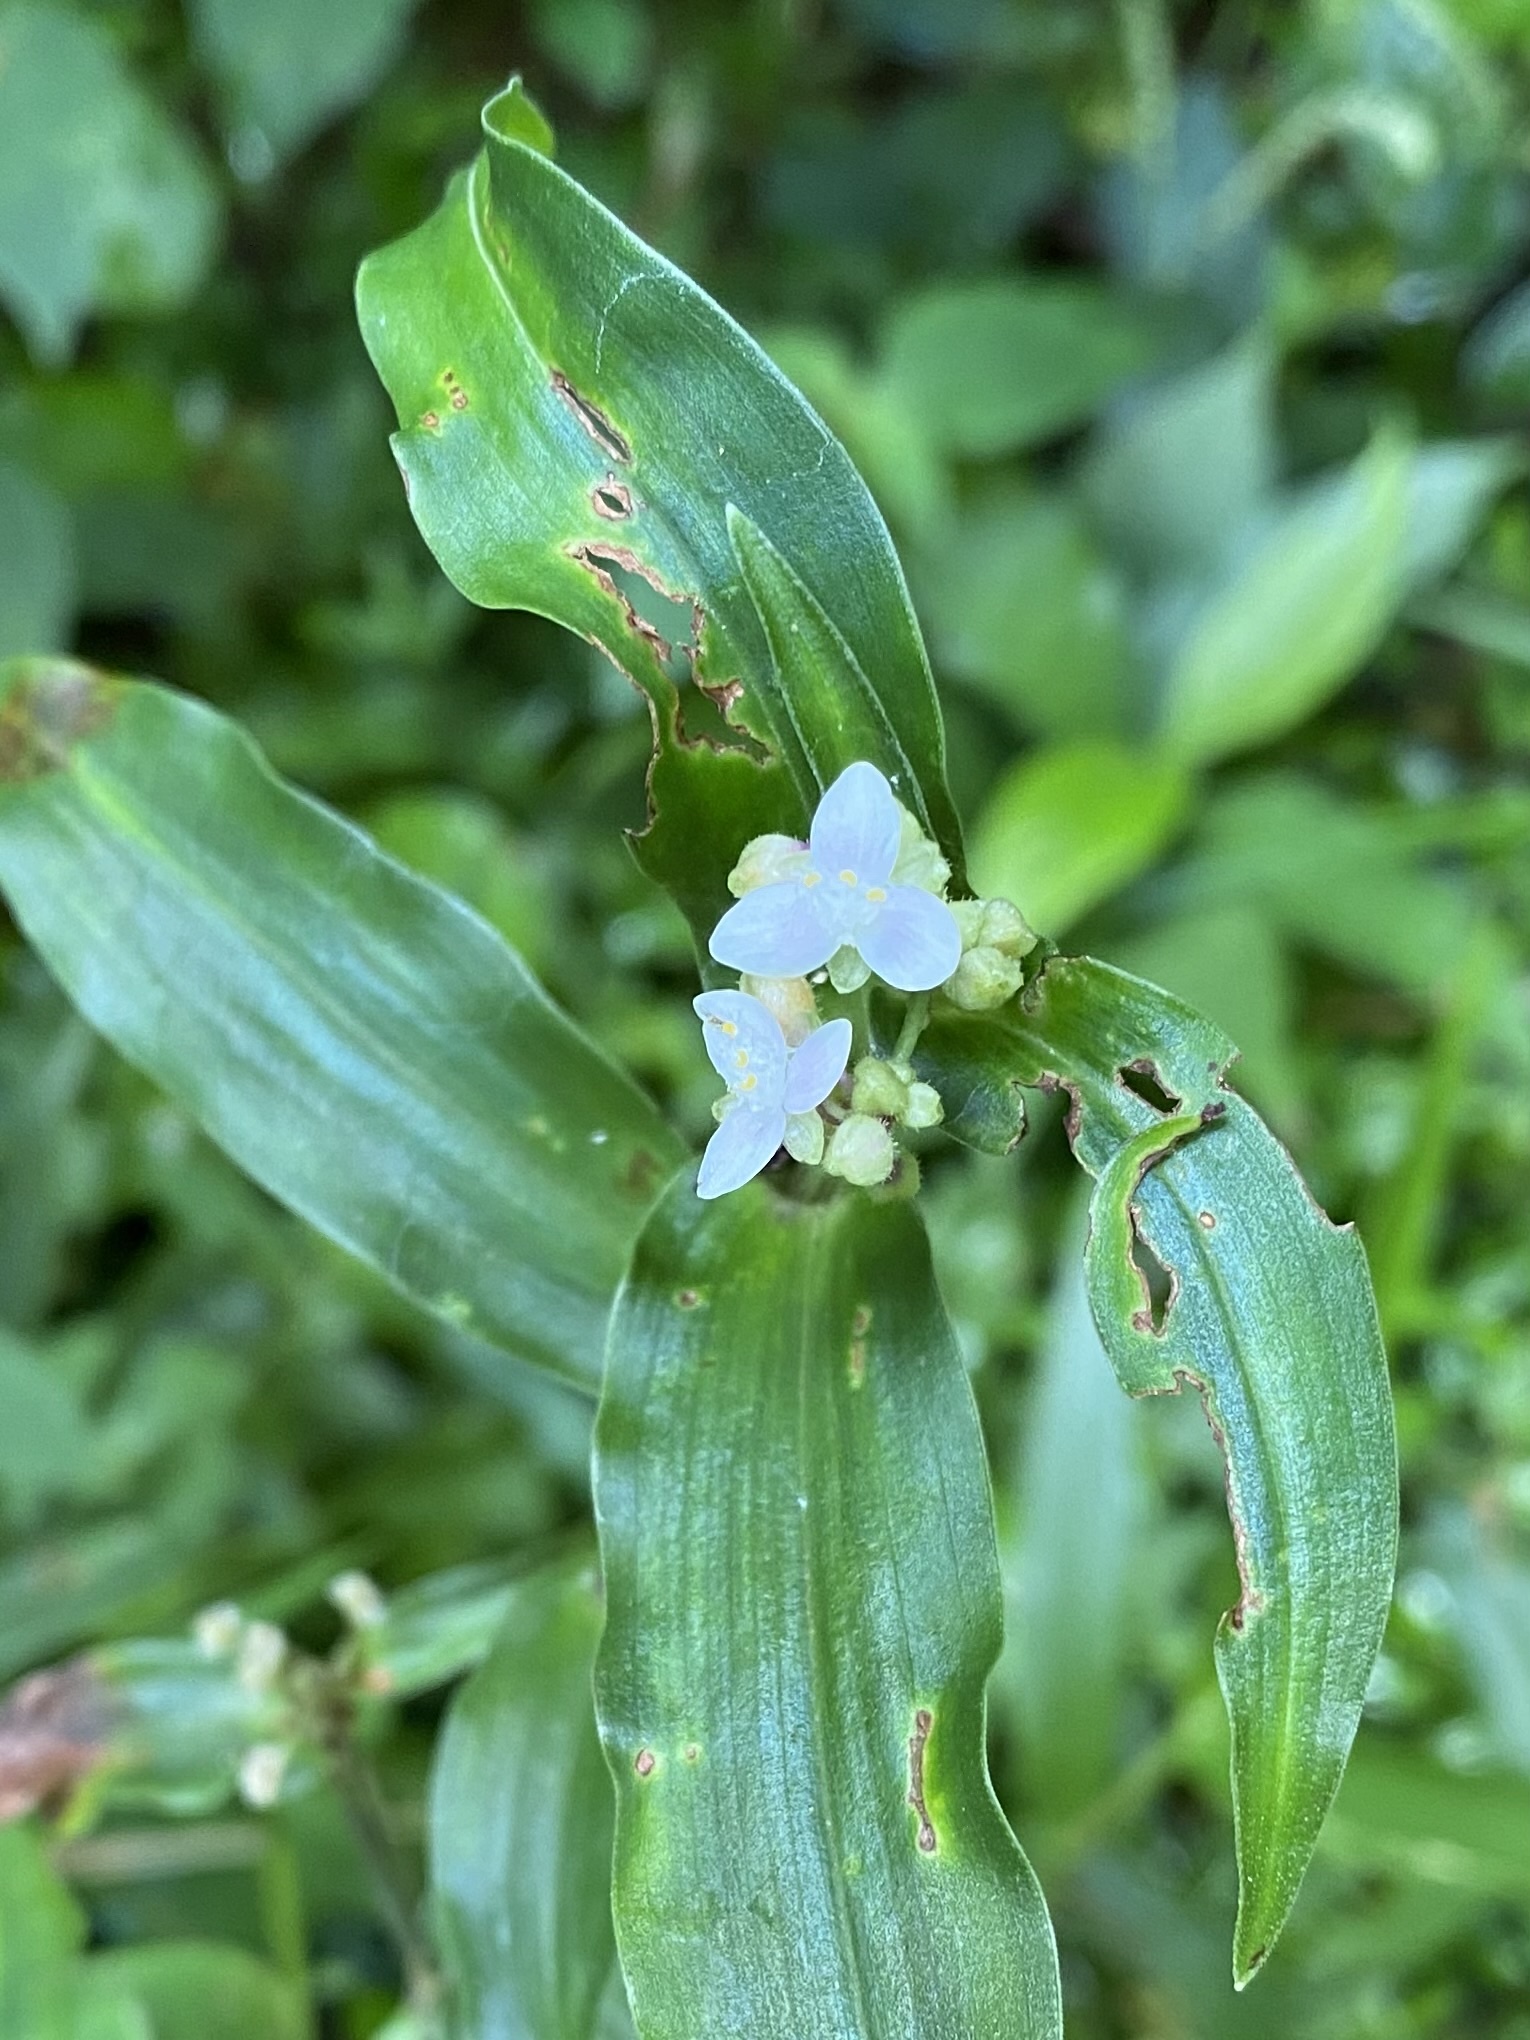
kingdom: Plantae
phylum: Tracheophyta
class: Liliopsida
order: Commelinales
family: Commelinaceae
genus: Callisia
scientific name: Callisia serrulata
